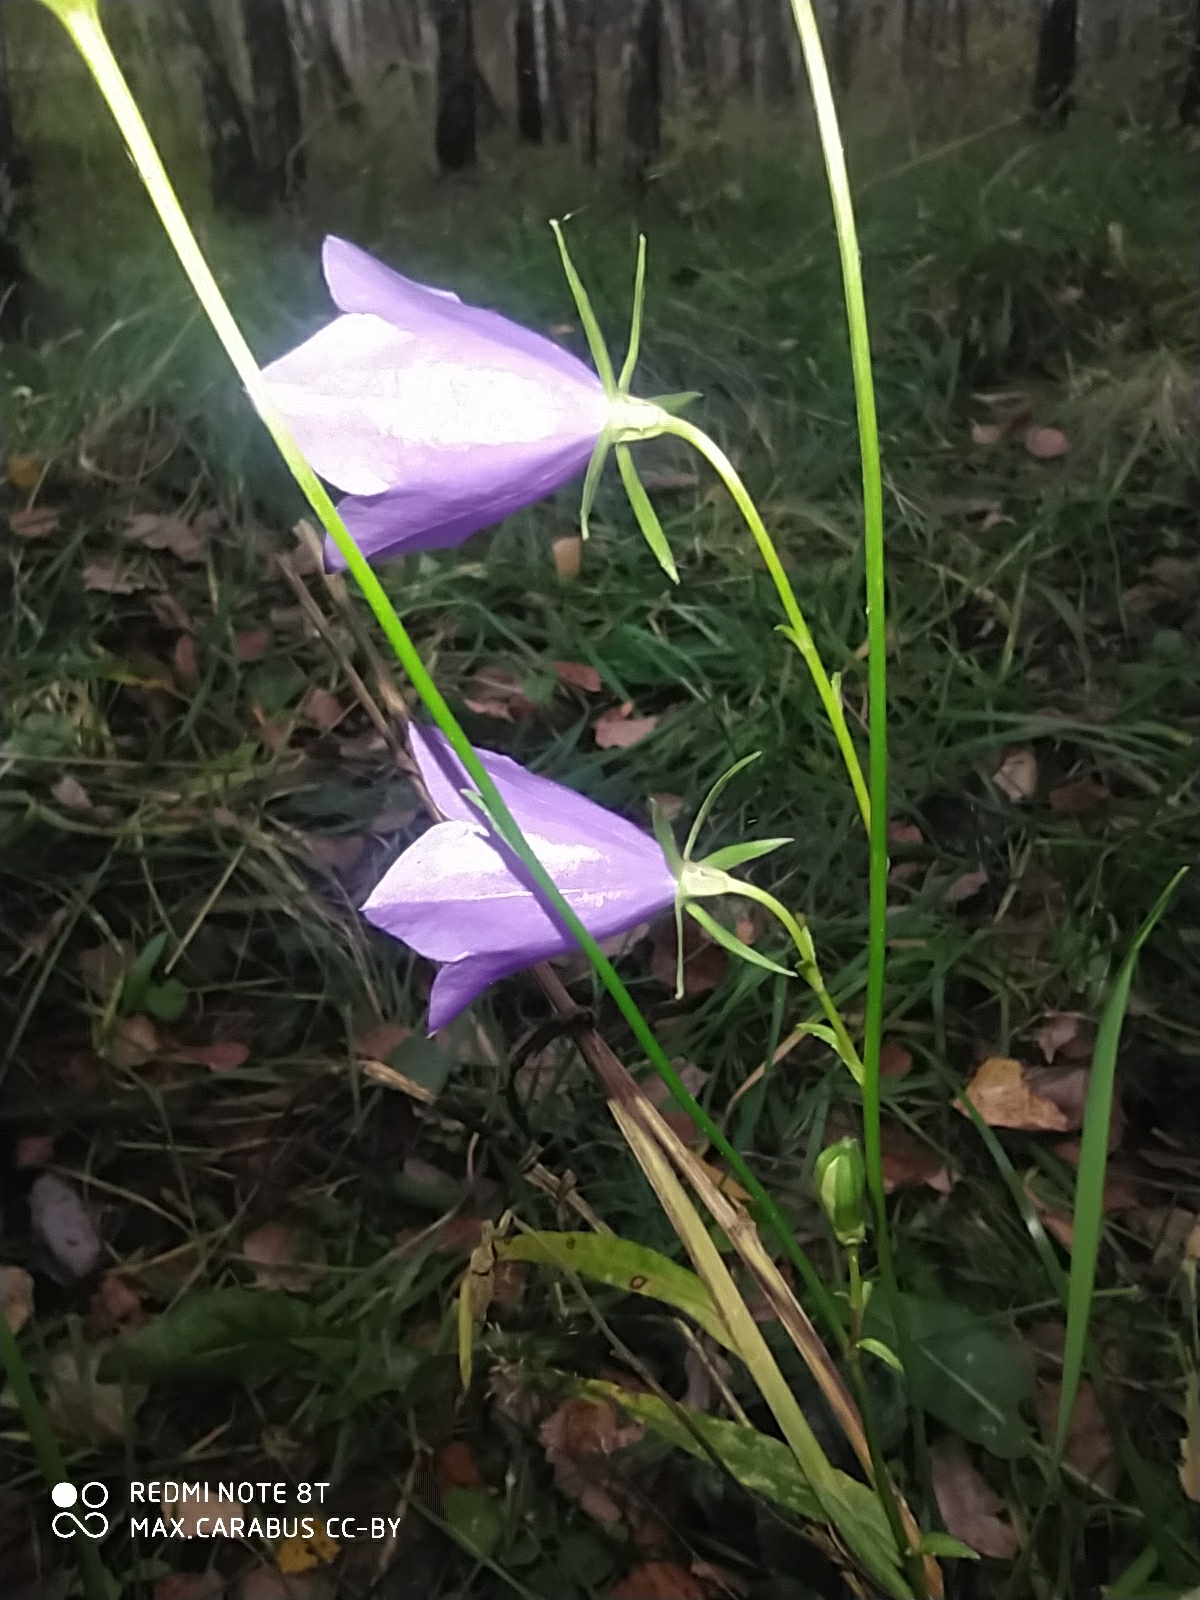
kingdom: Plantae
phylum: Tracheophyta
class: Magnoliopsida
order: Asterales
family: Campanulaceae
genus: Campanula
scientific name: Campanula persicifolia
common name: Peach-leaved bellflower
